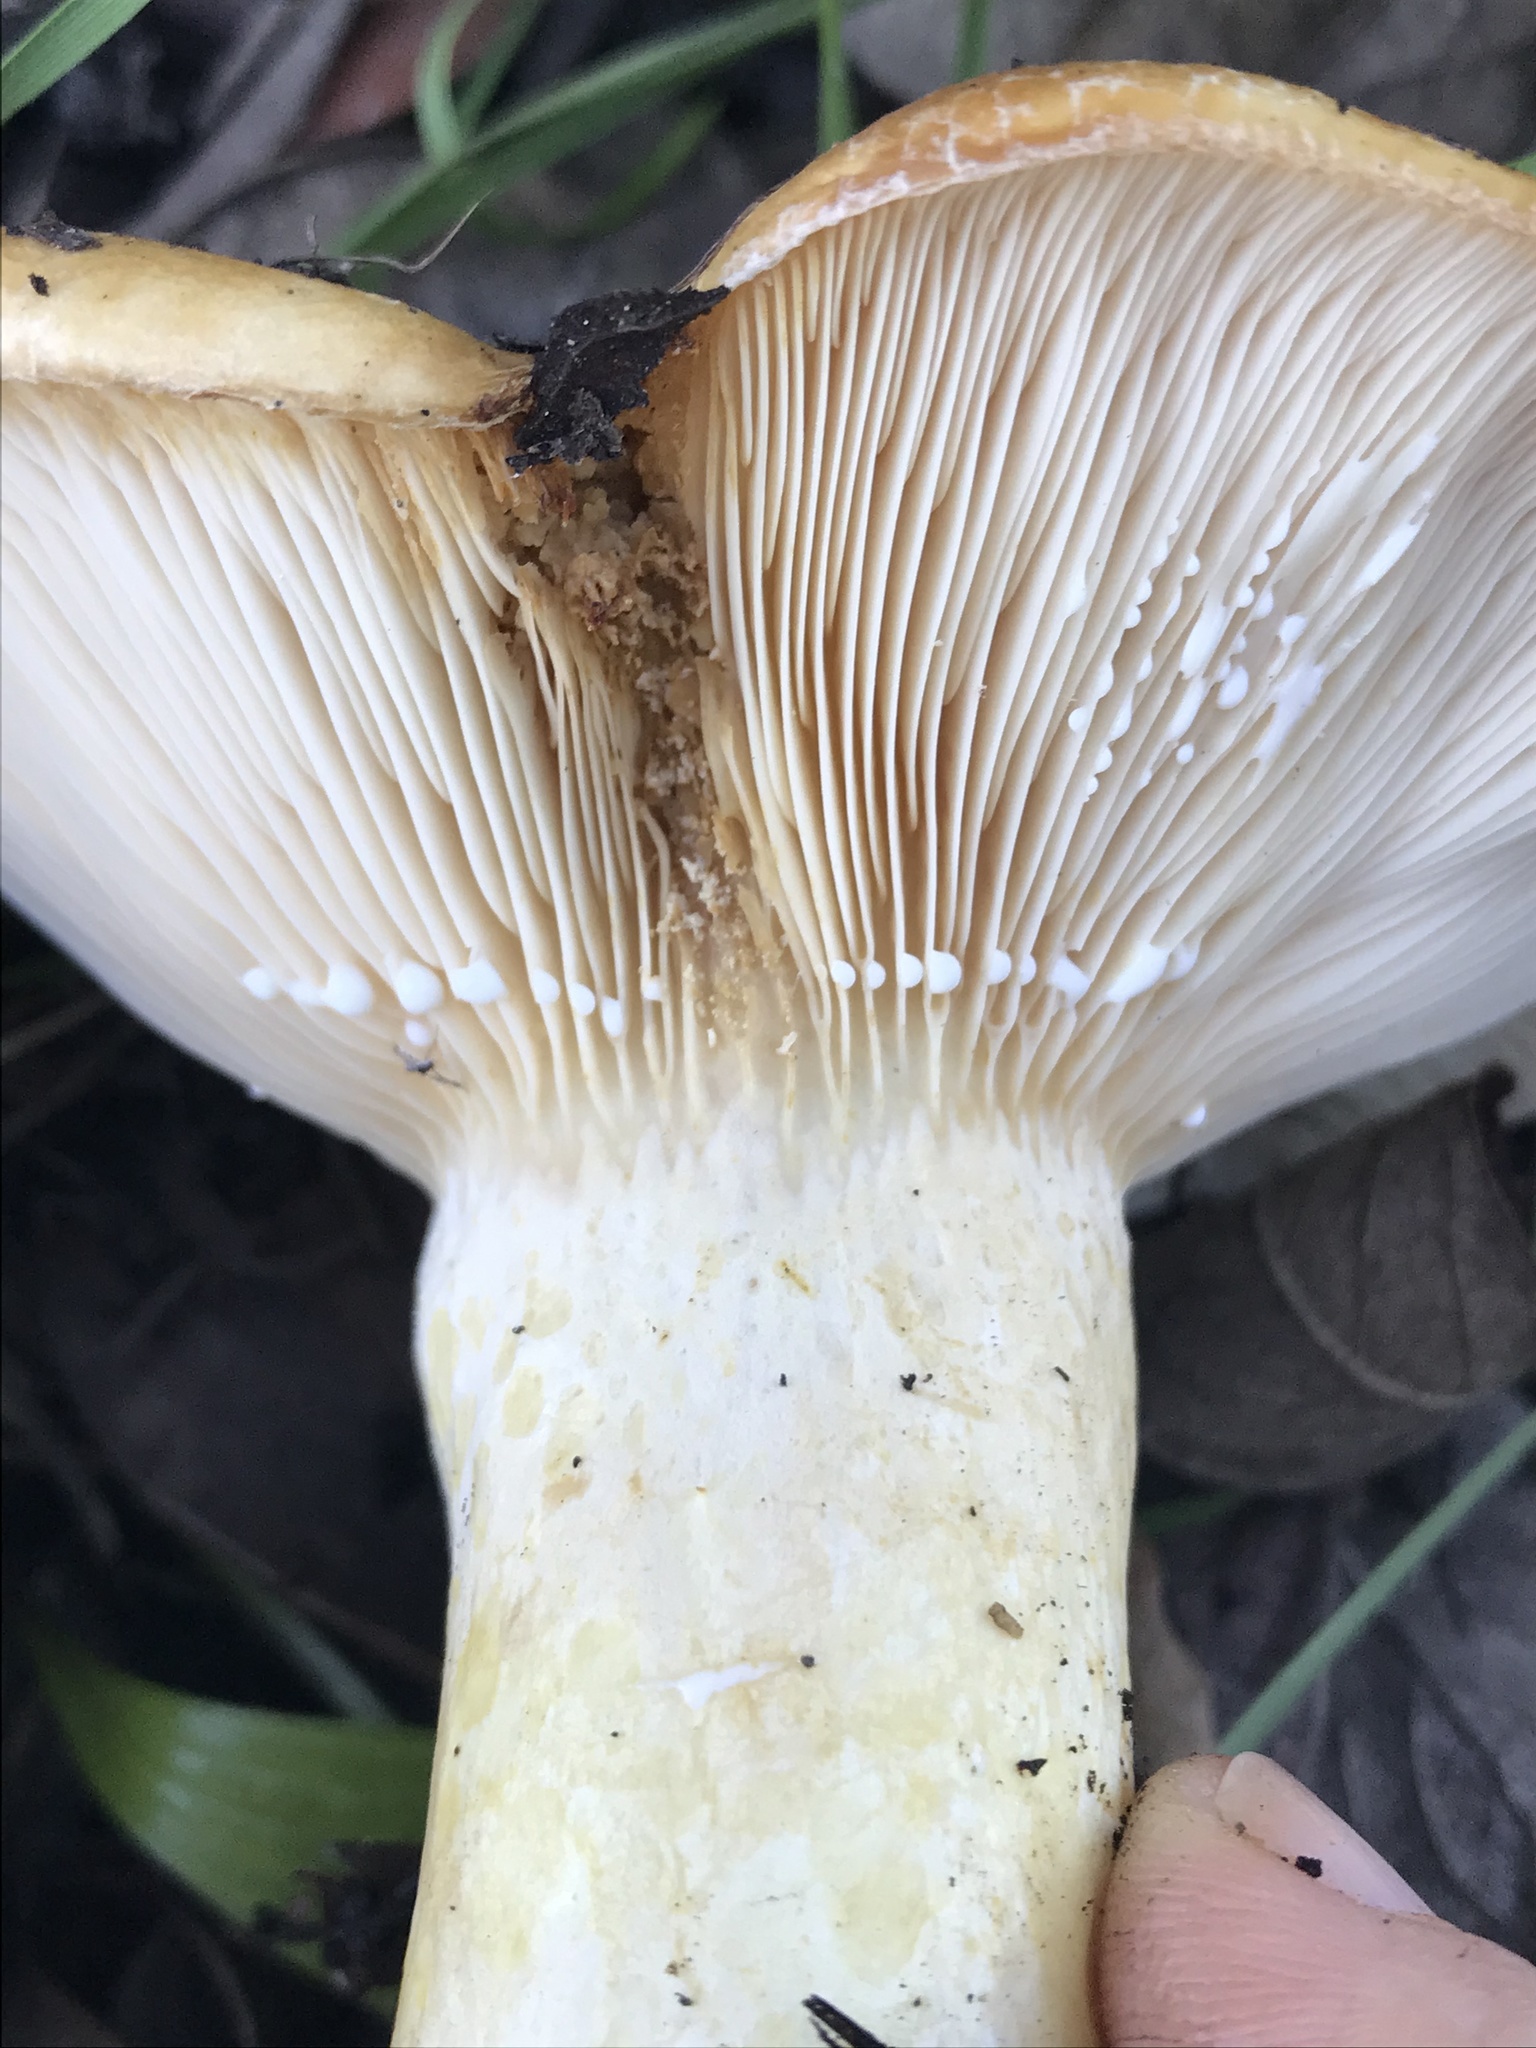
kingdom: Fungi
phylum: Basidiomycota
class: Agaricomycetes
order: Russulales
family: Russulaceae
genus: Lactarius
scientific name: Lactarius alnicola
